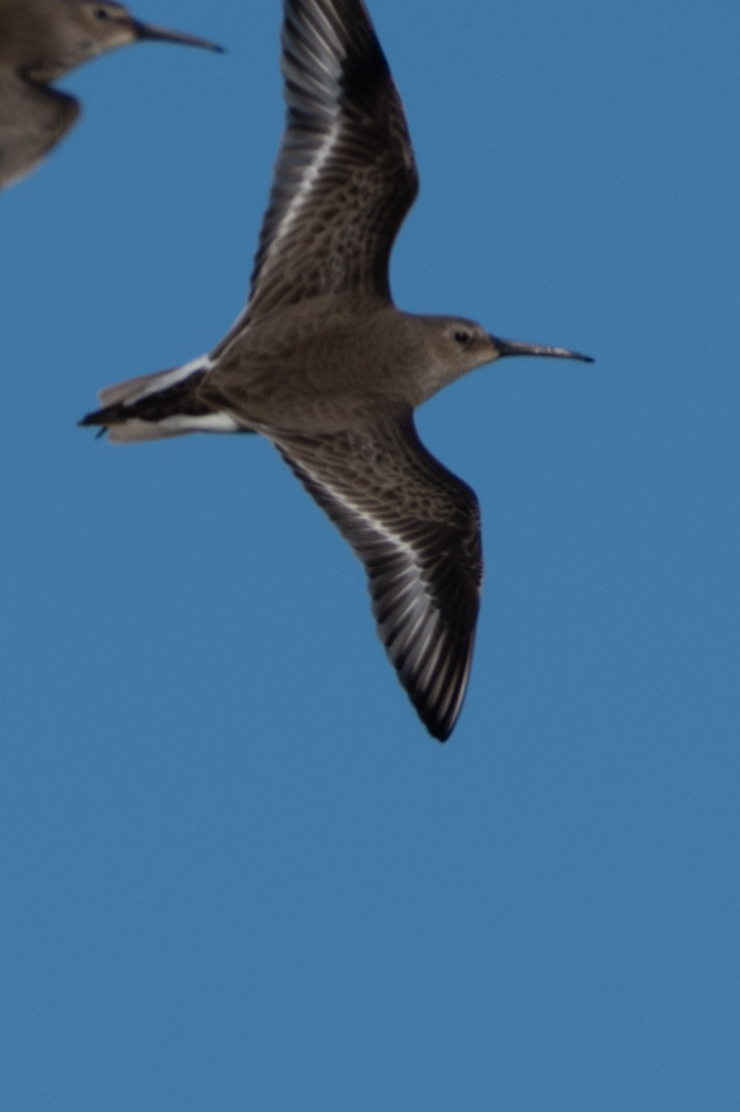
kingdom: Animalia
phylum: Chordata
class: Aves
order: Charadriiformes
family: Scolopacidae
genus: Calidris
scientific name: Calidris alpina
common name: Dunlin
